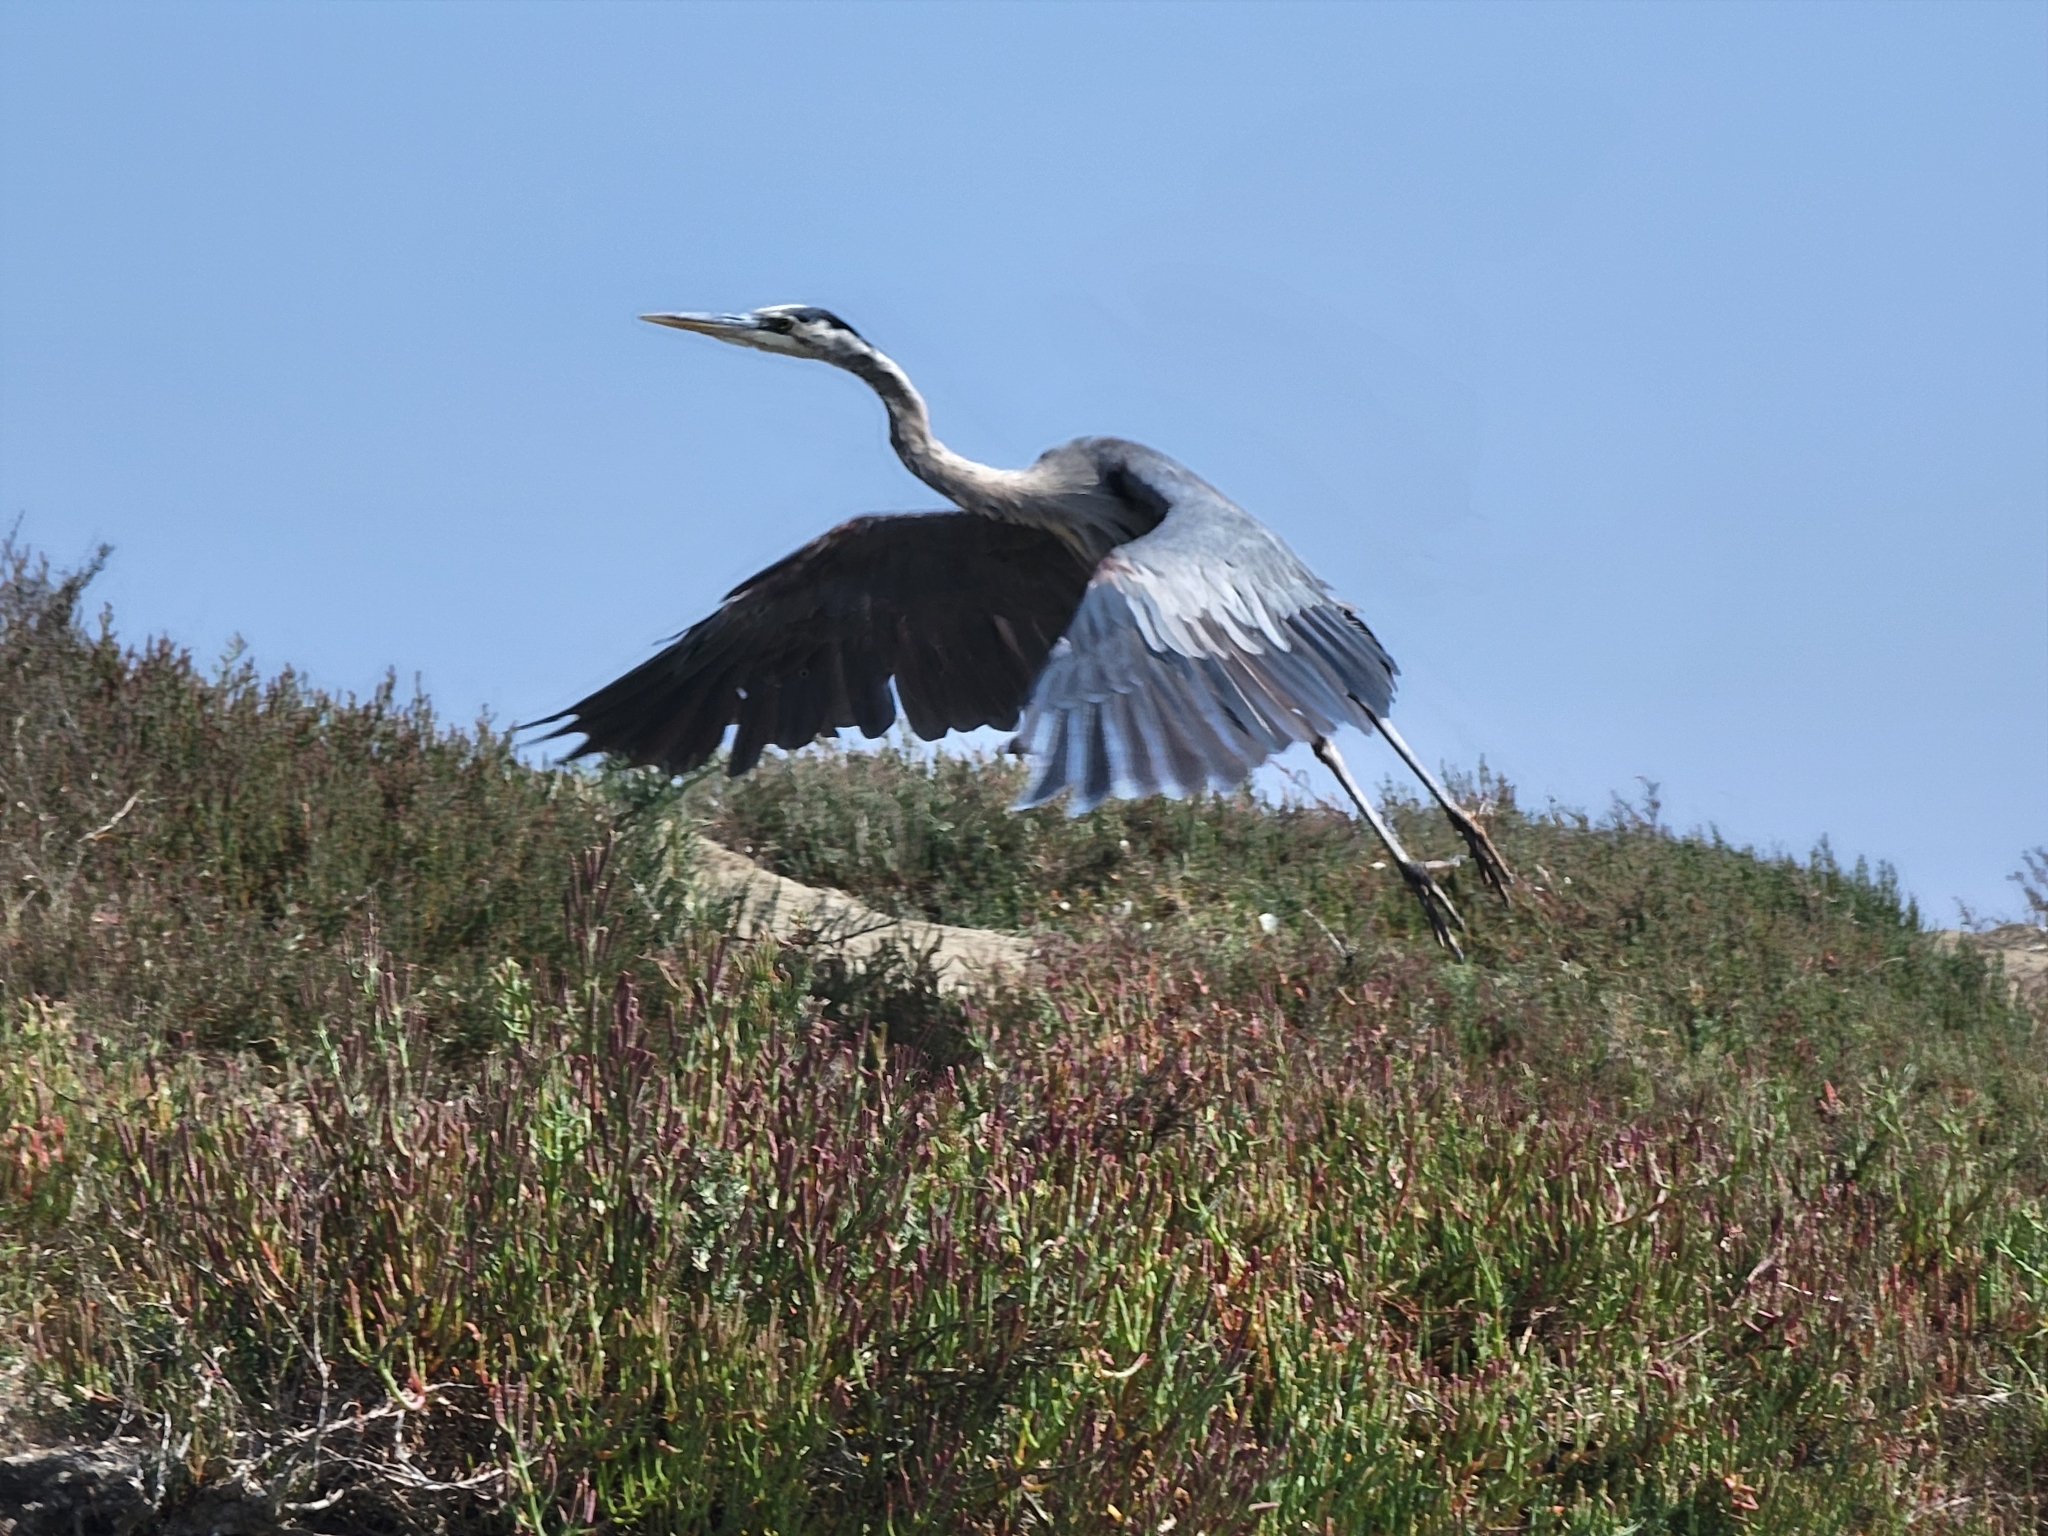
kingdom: Animalia
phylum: Chordata
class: Aves
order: Pelecaniformes
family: Ardeidae
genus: Ardea
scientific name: Ardea herodias
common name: Great blue heron
